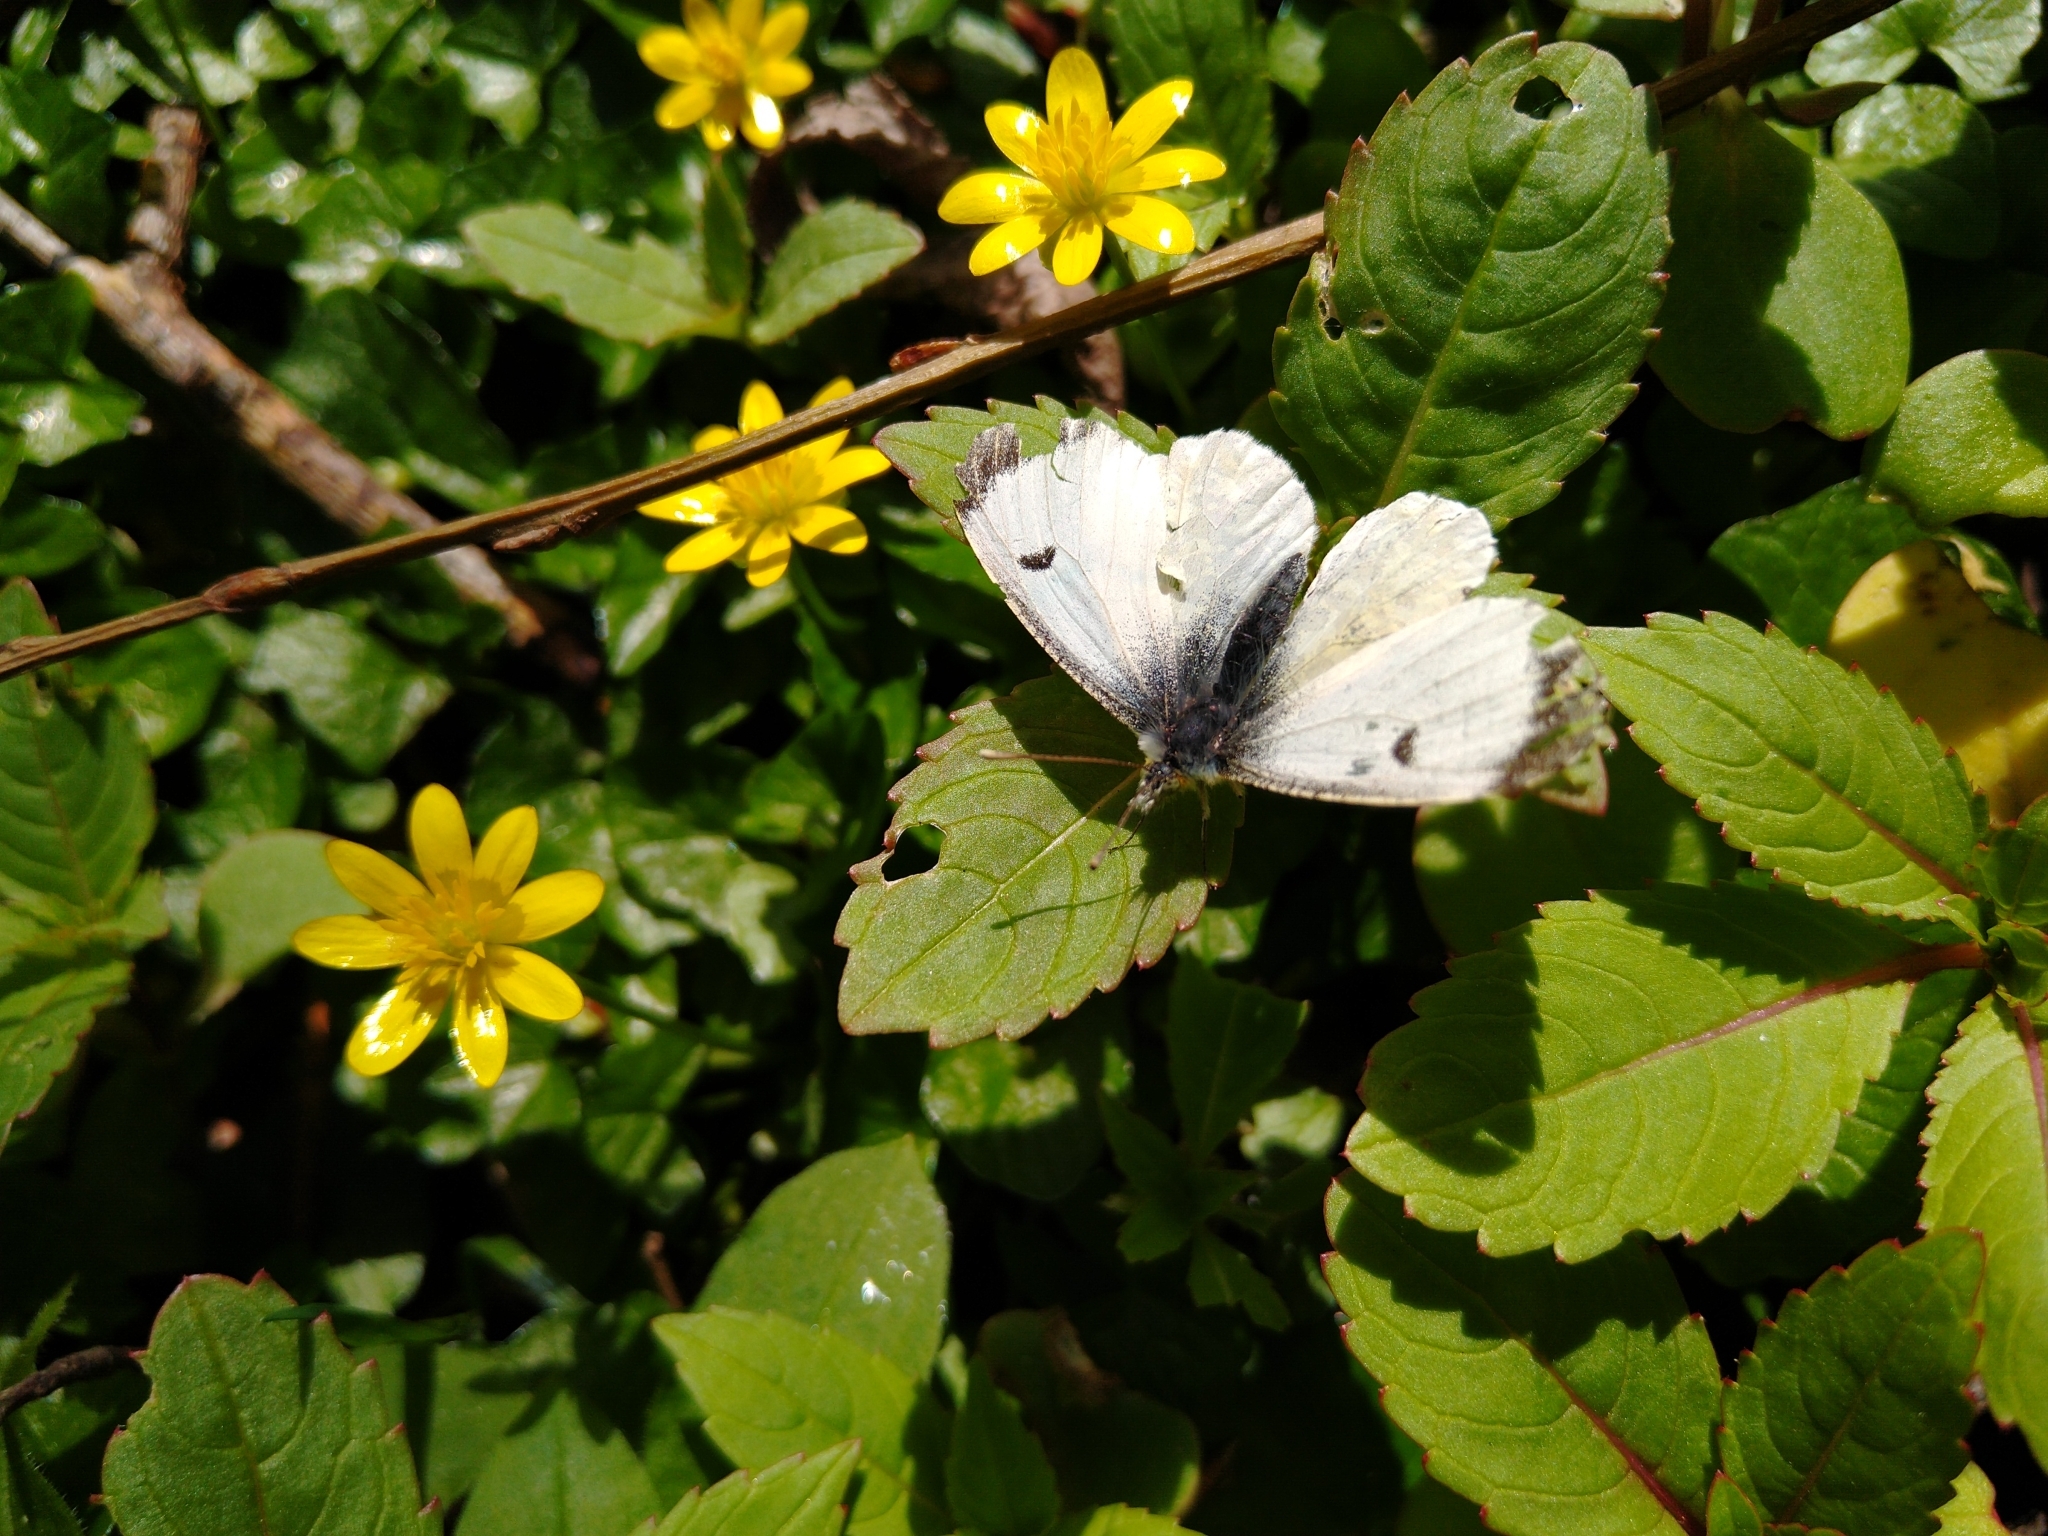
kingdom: Animalia
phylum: Arthropoda
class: Insecta
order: Lepidoptera
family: Pieridae
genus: Anthocharis
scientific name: Anthocharis cardamines
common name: Orange-tip
